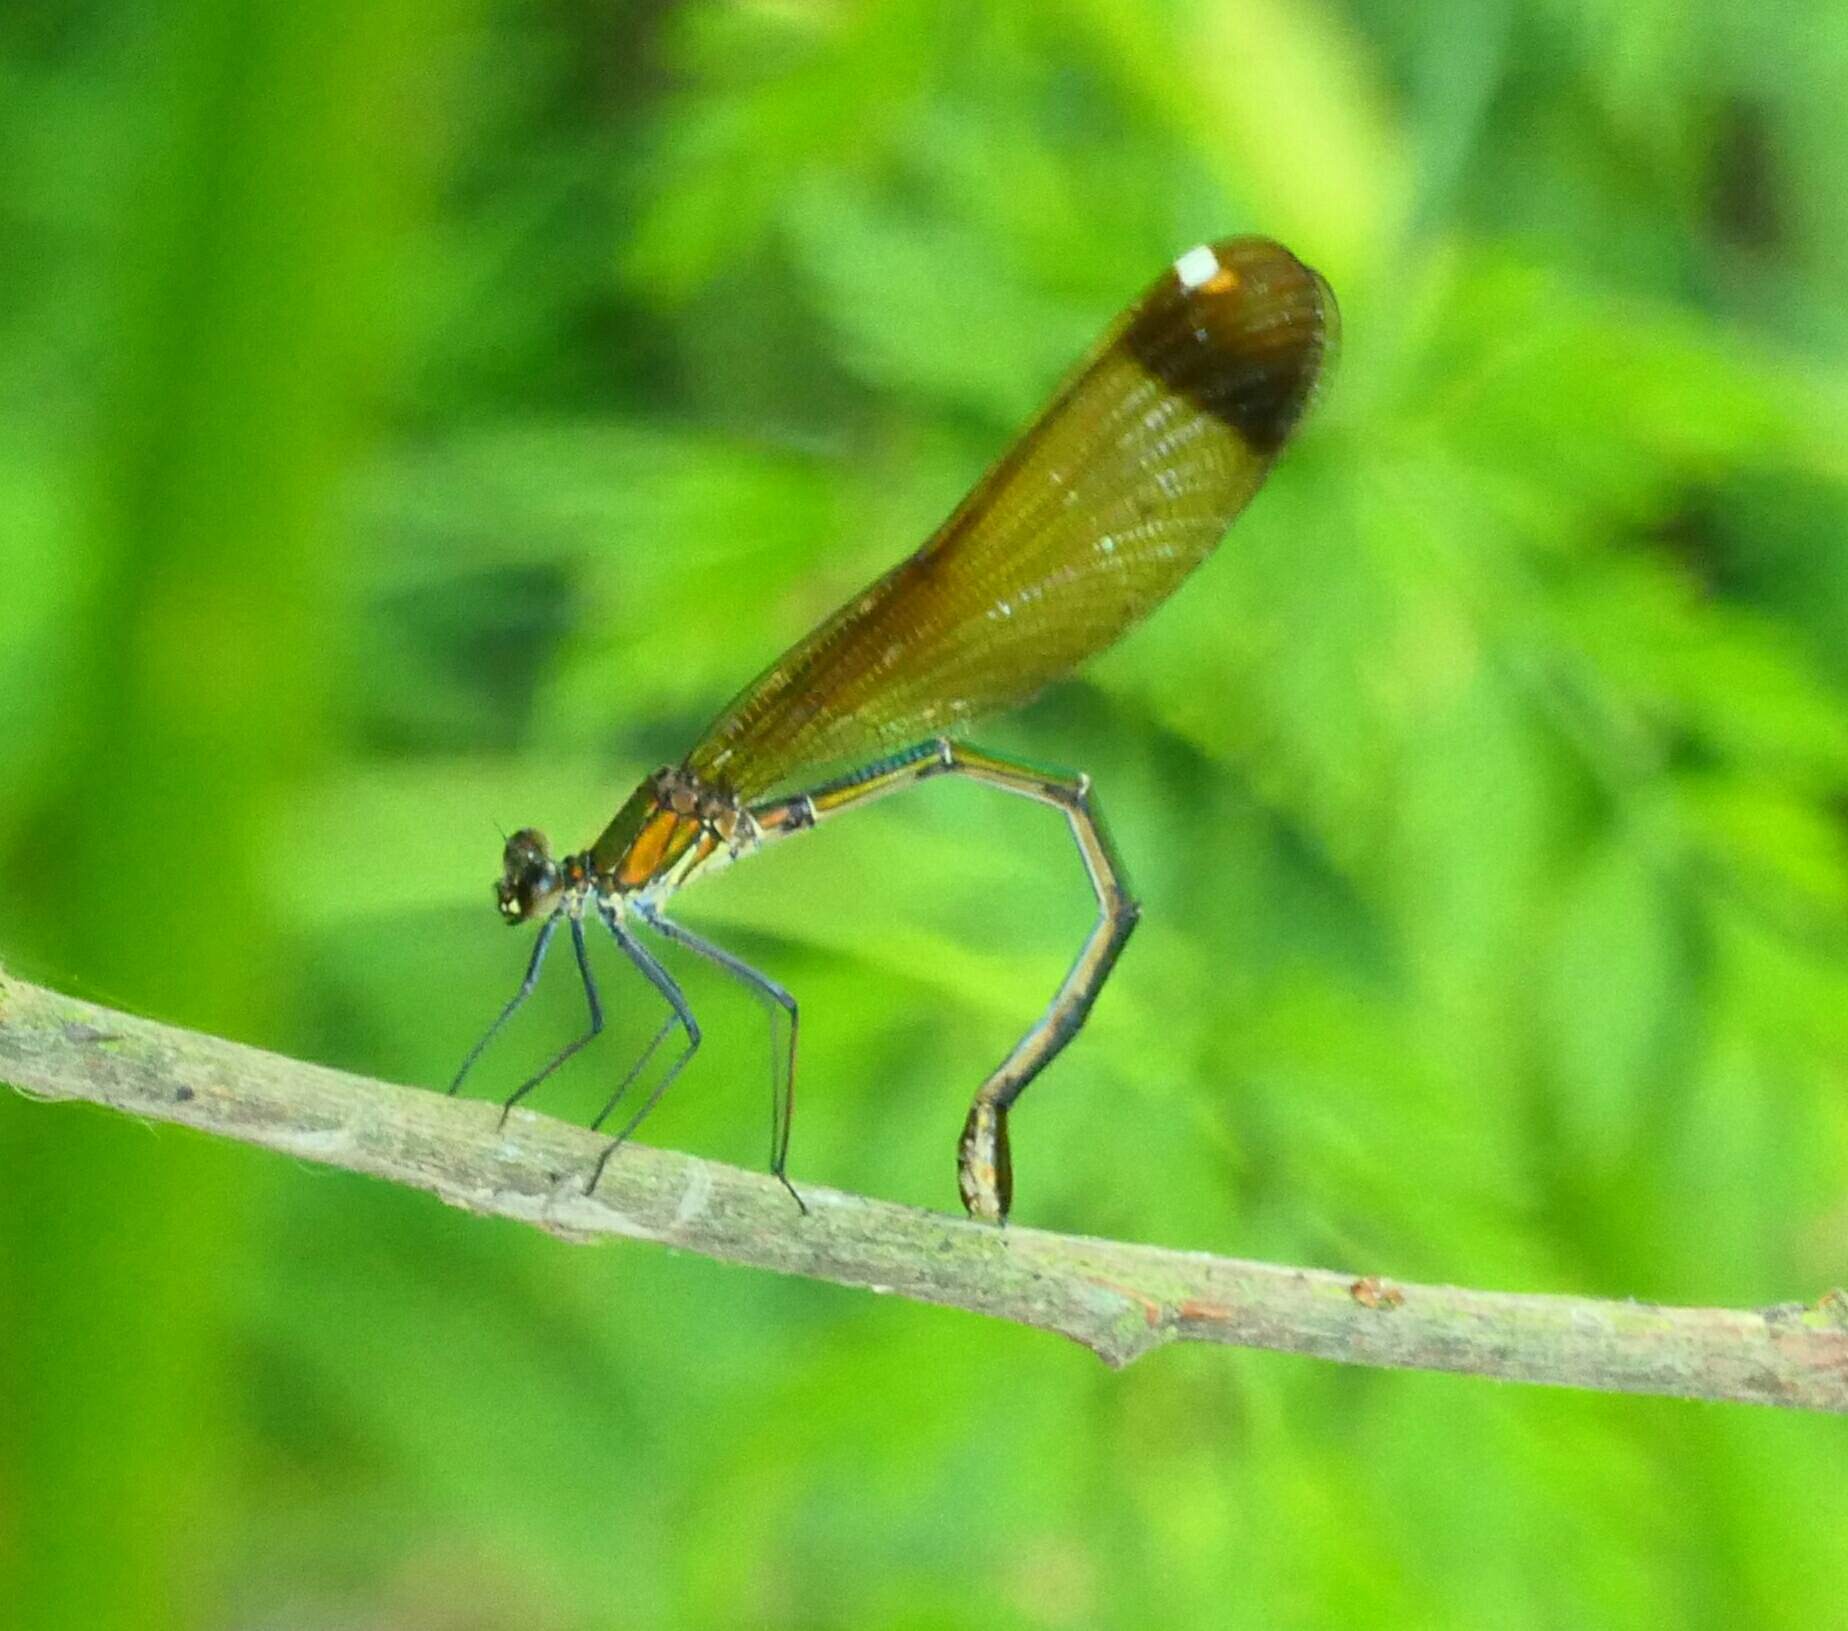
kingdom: Animalia
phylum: Arthropoda
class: Insecta
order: Odonata
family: Calopterygidae
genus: Calopteryx
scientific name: Calopteryx haemorrhoidalis
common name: Copper demoiselle
